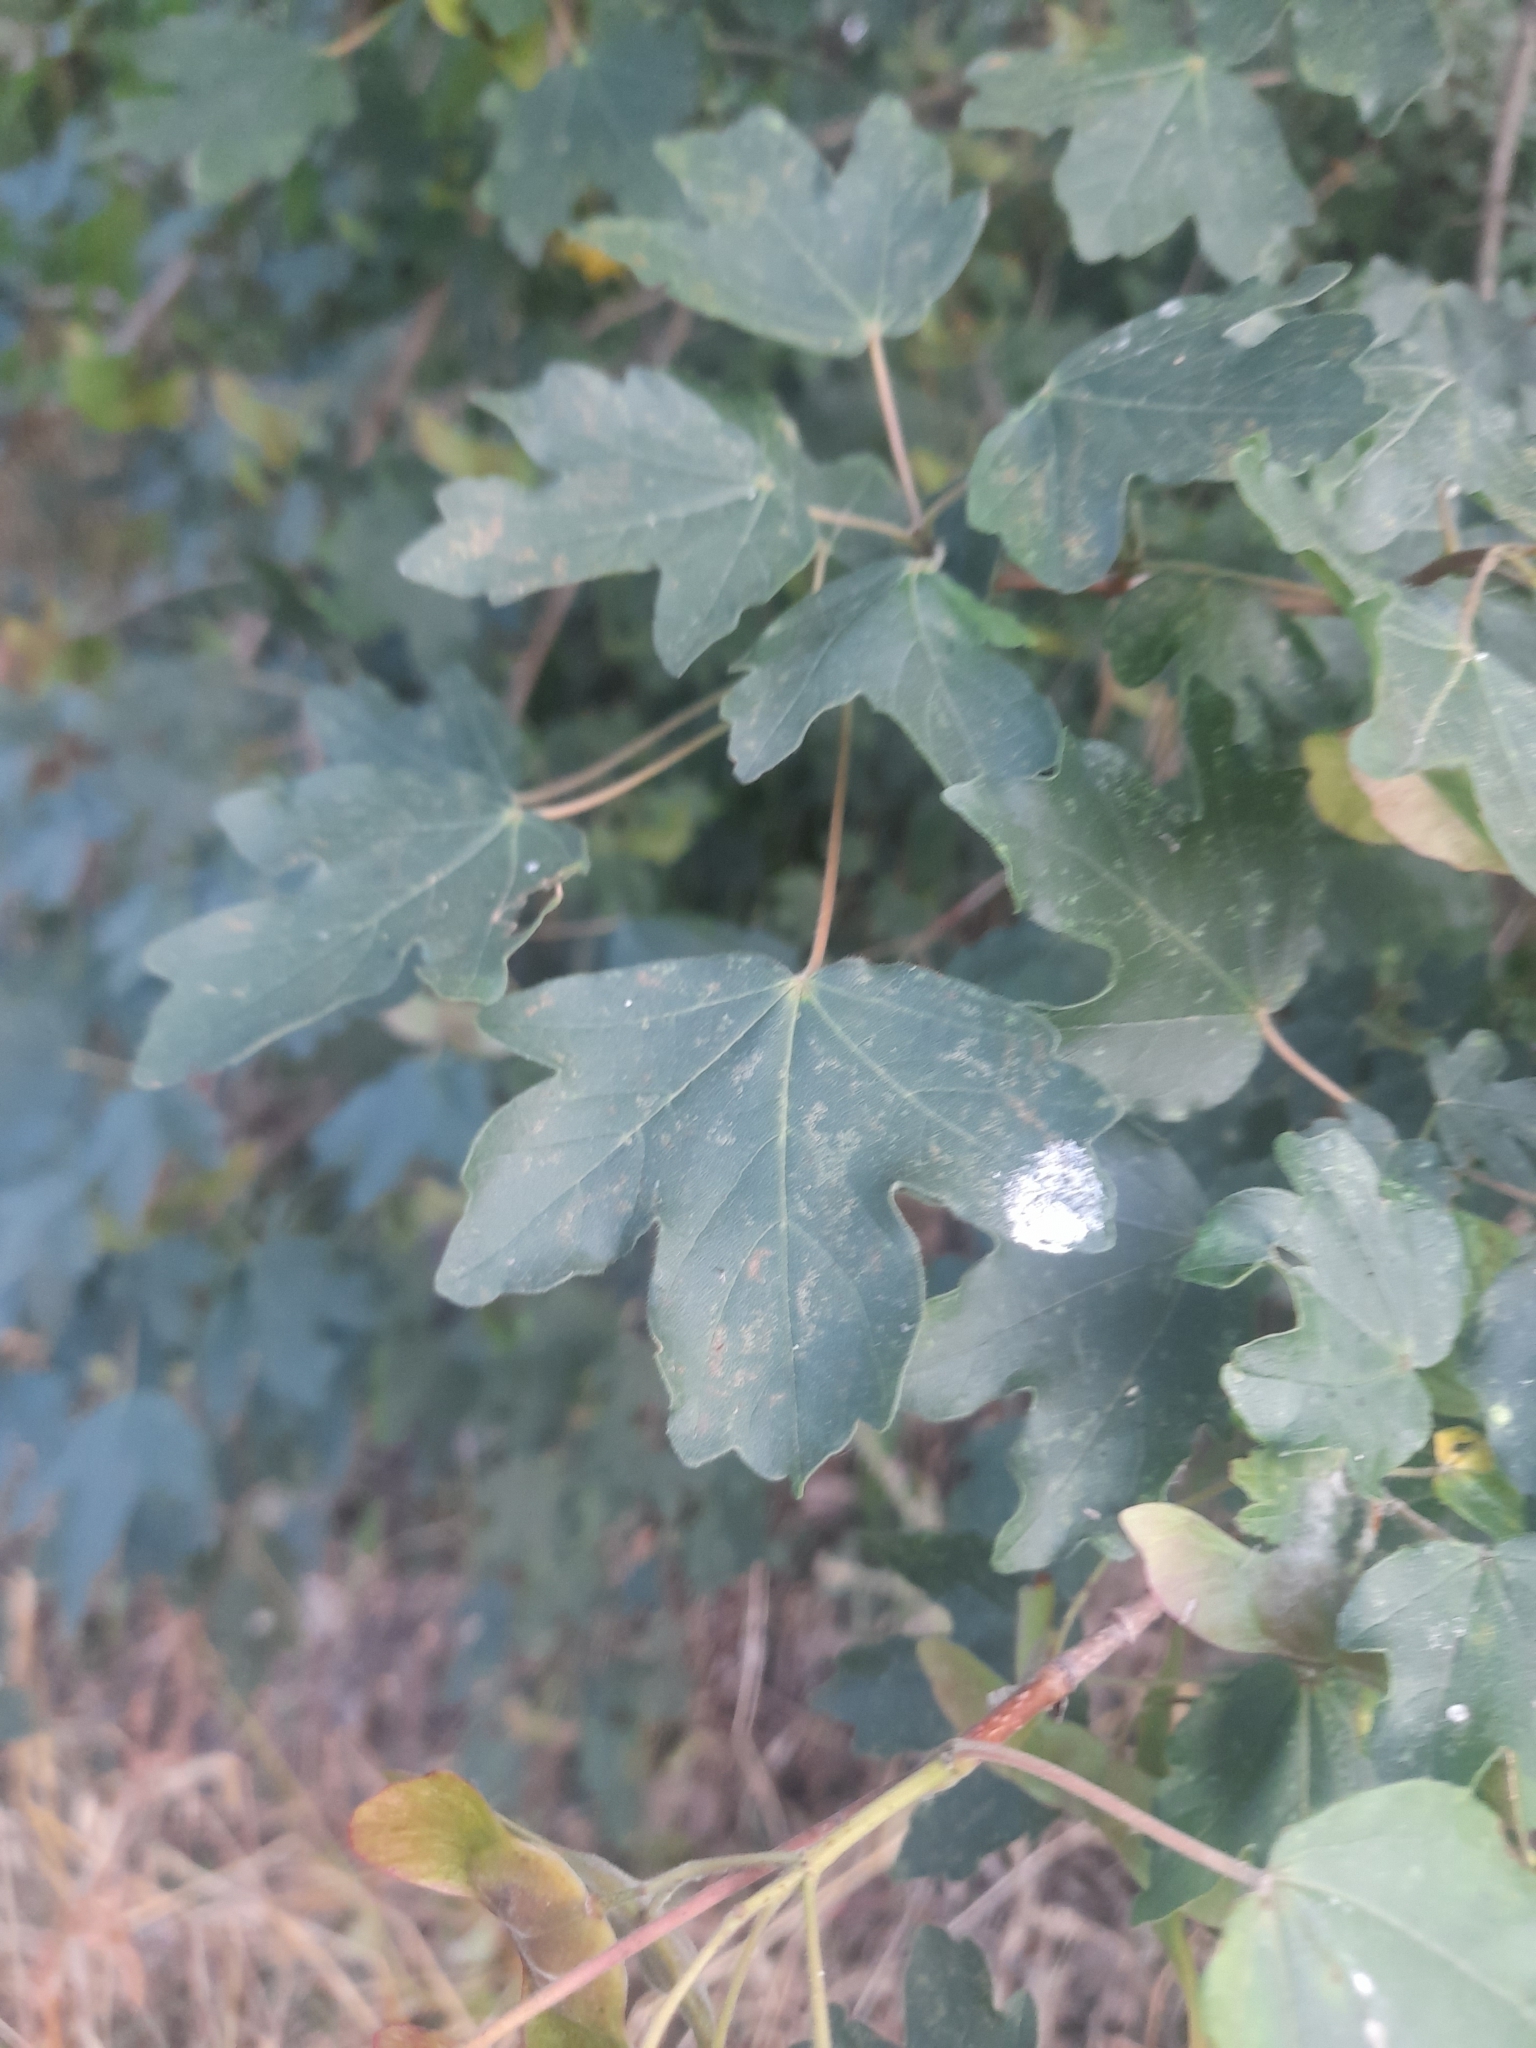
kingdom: Plantae
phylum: Tracheophyta
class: Magnoliopsida
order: Sapindales
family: Sapindaceae
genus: Acer
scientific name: Acer campestre
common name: Field maple
